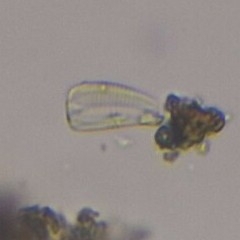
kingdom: Chromista
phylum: Ochrophyta
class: Bacillariophyceae
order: Cymbellales
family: Rhoicospheniaceae
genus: Rhoicosphenia
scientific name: Rhoicosphenia abbreviata
